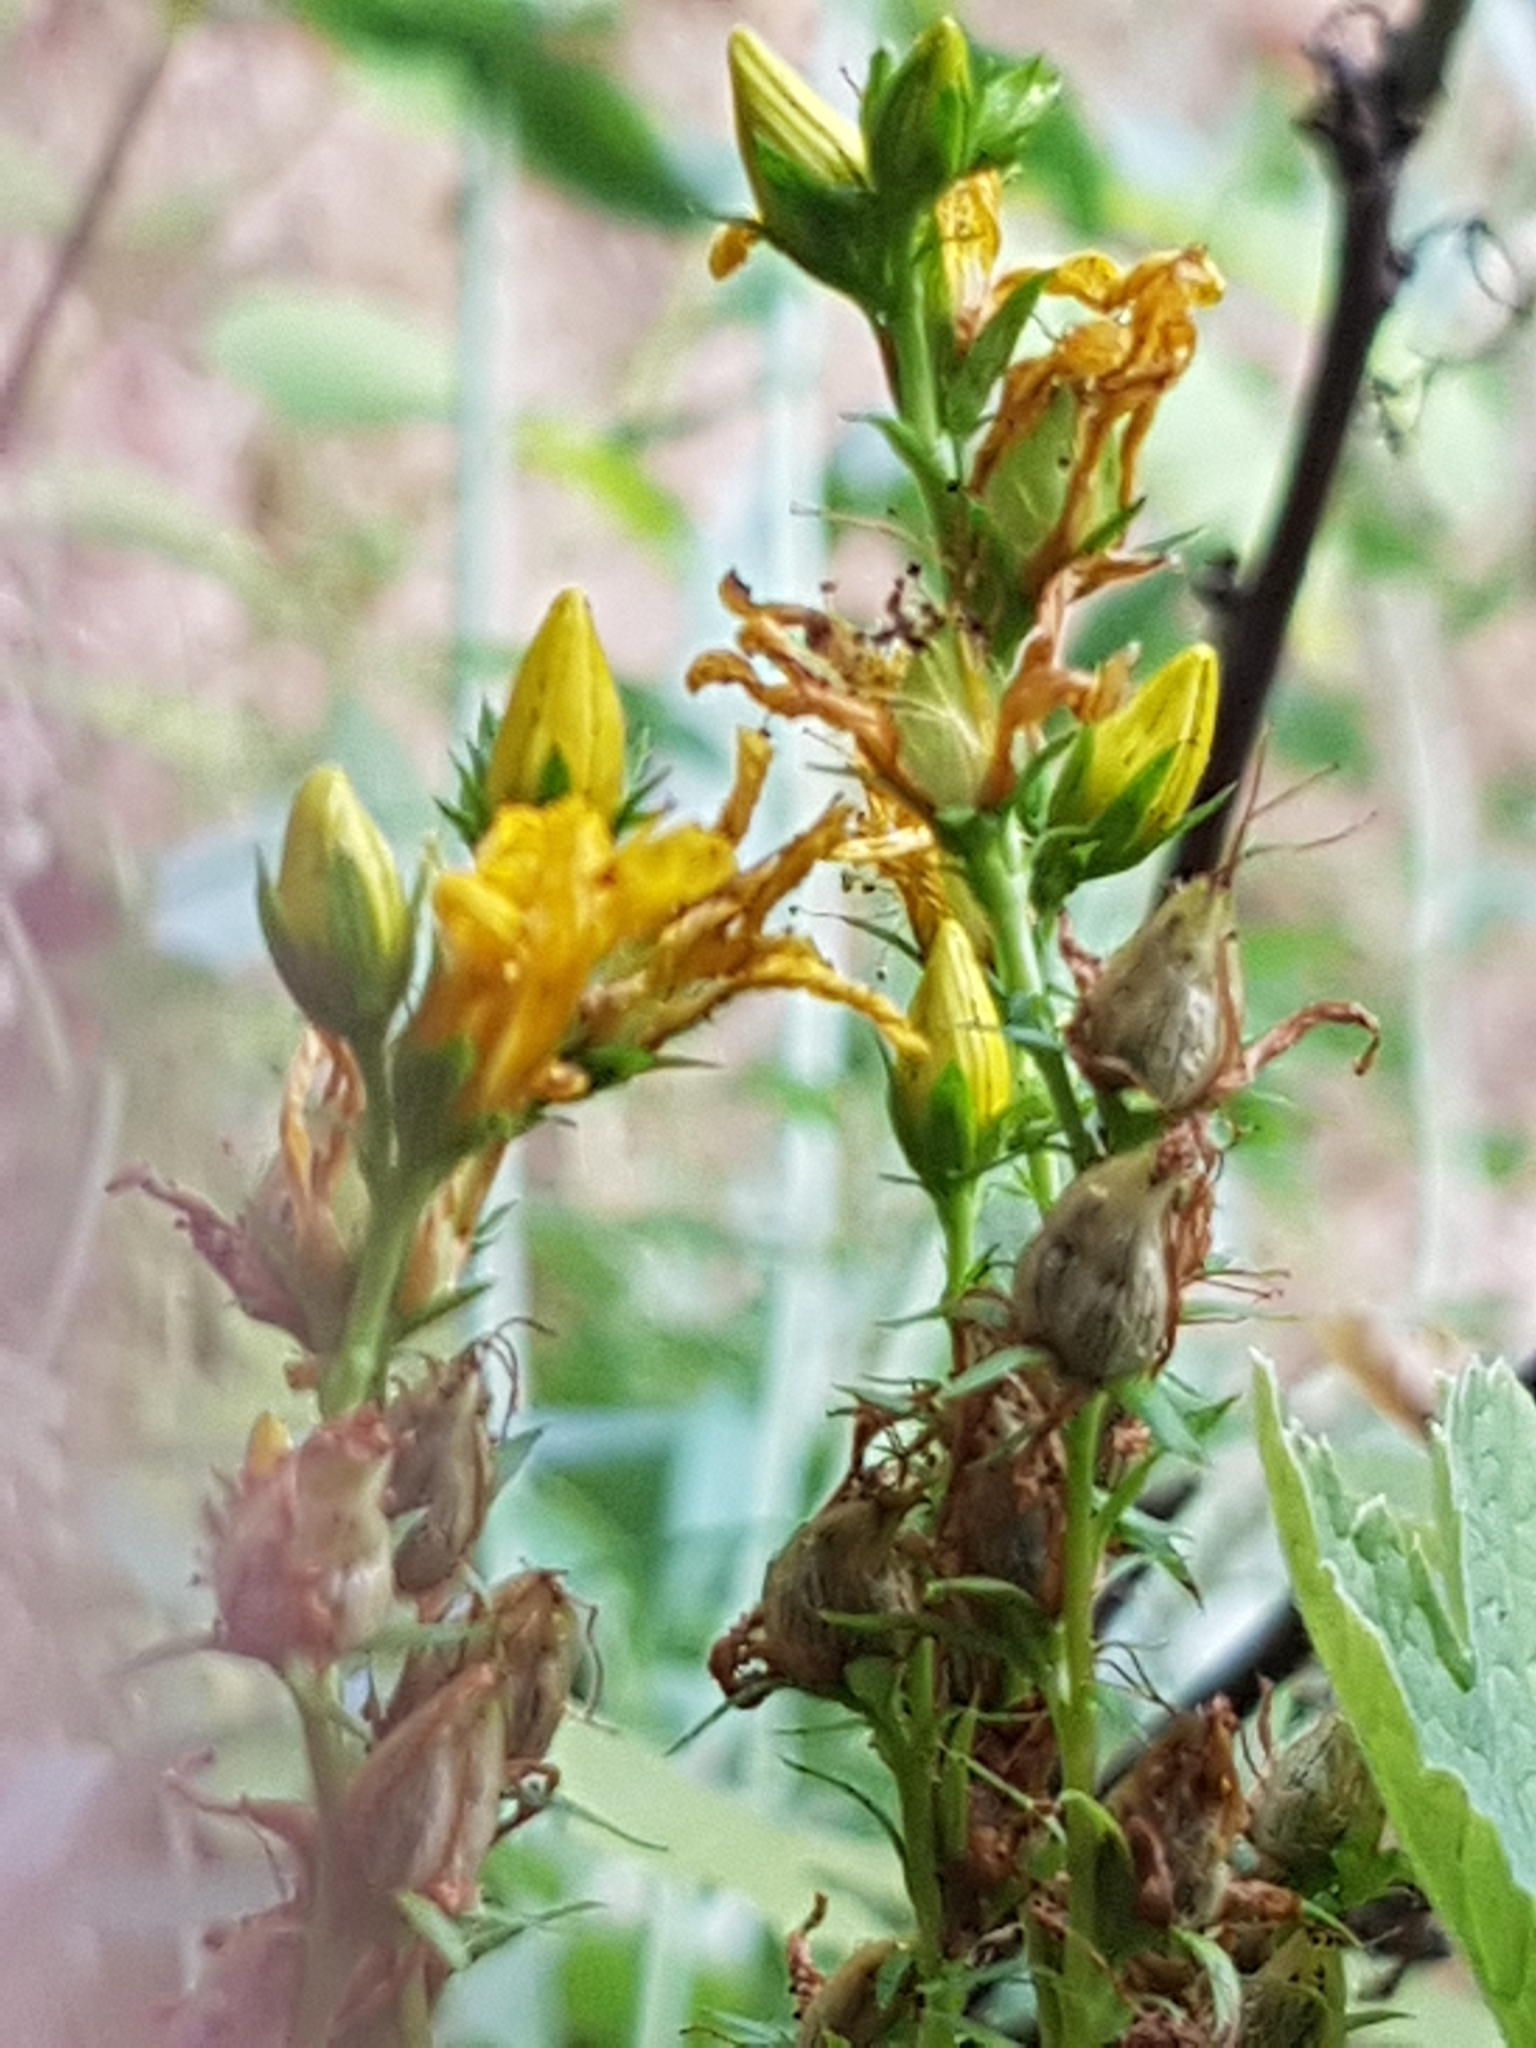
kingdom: Plantae
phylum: Tracheophyta
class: Magnoliopsida
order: Malpighiales
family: Hypericaceae
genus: Hypericum
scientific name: Hypericum perforatum
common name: Common st. johnswort
